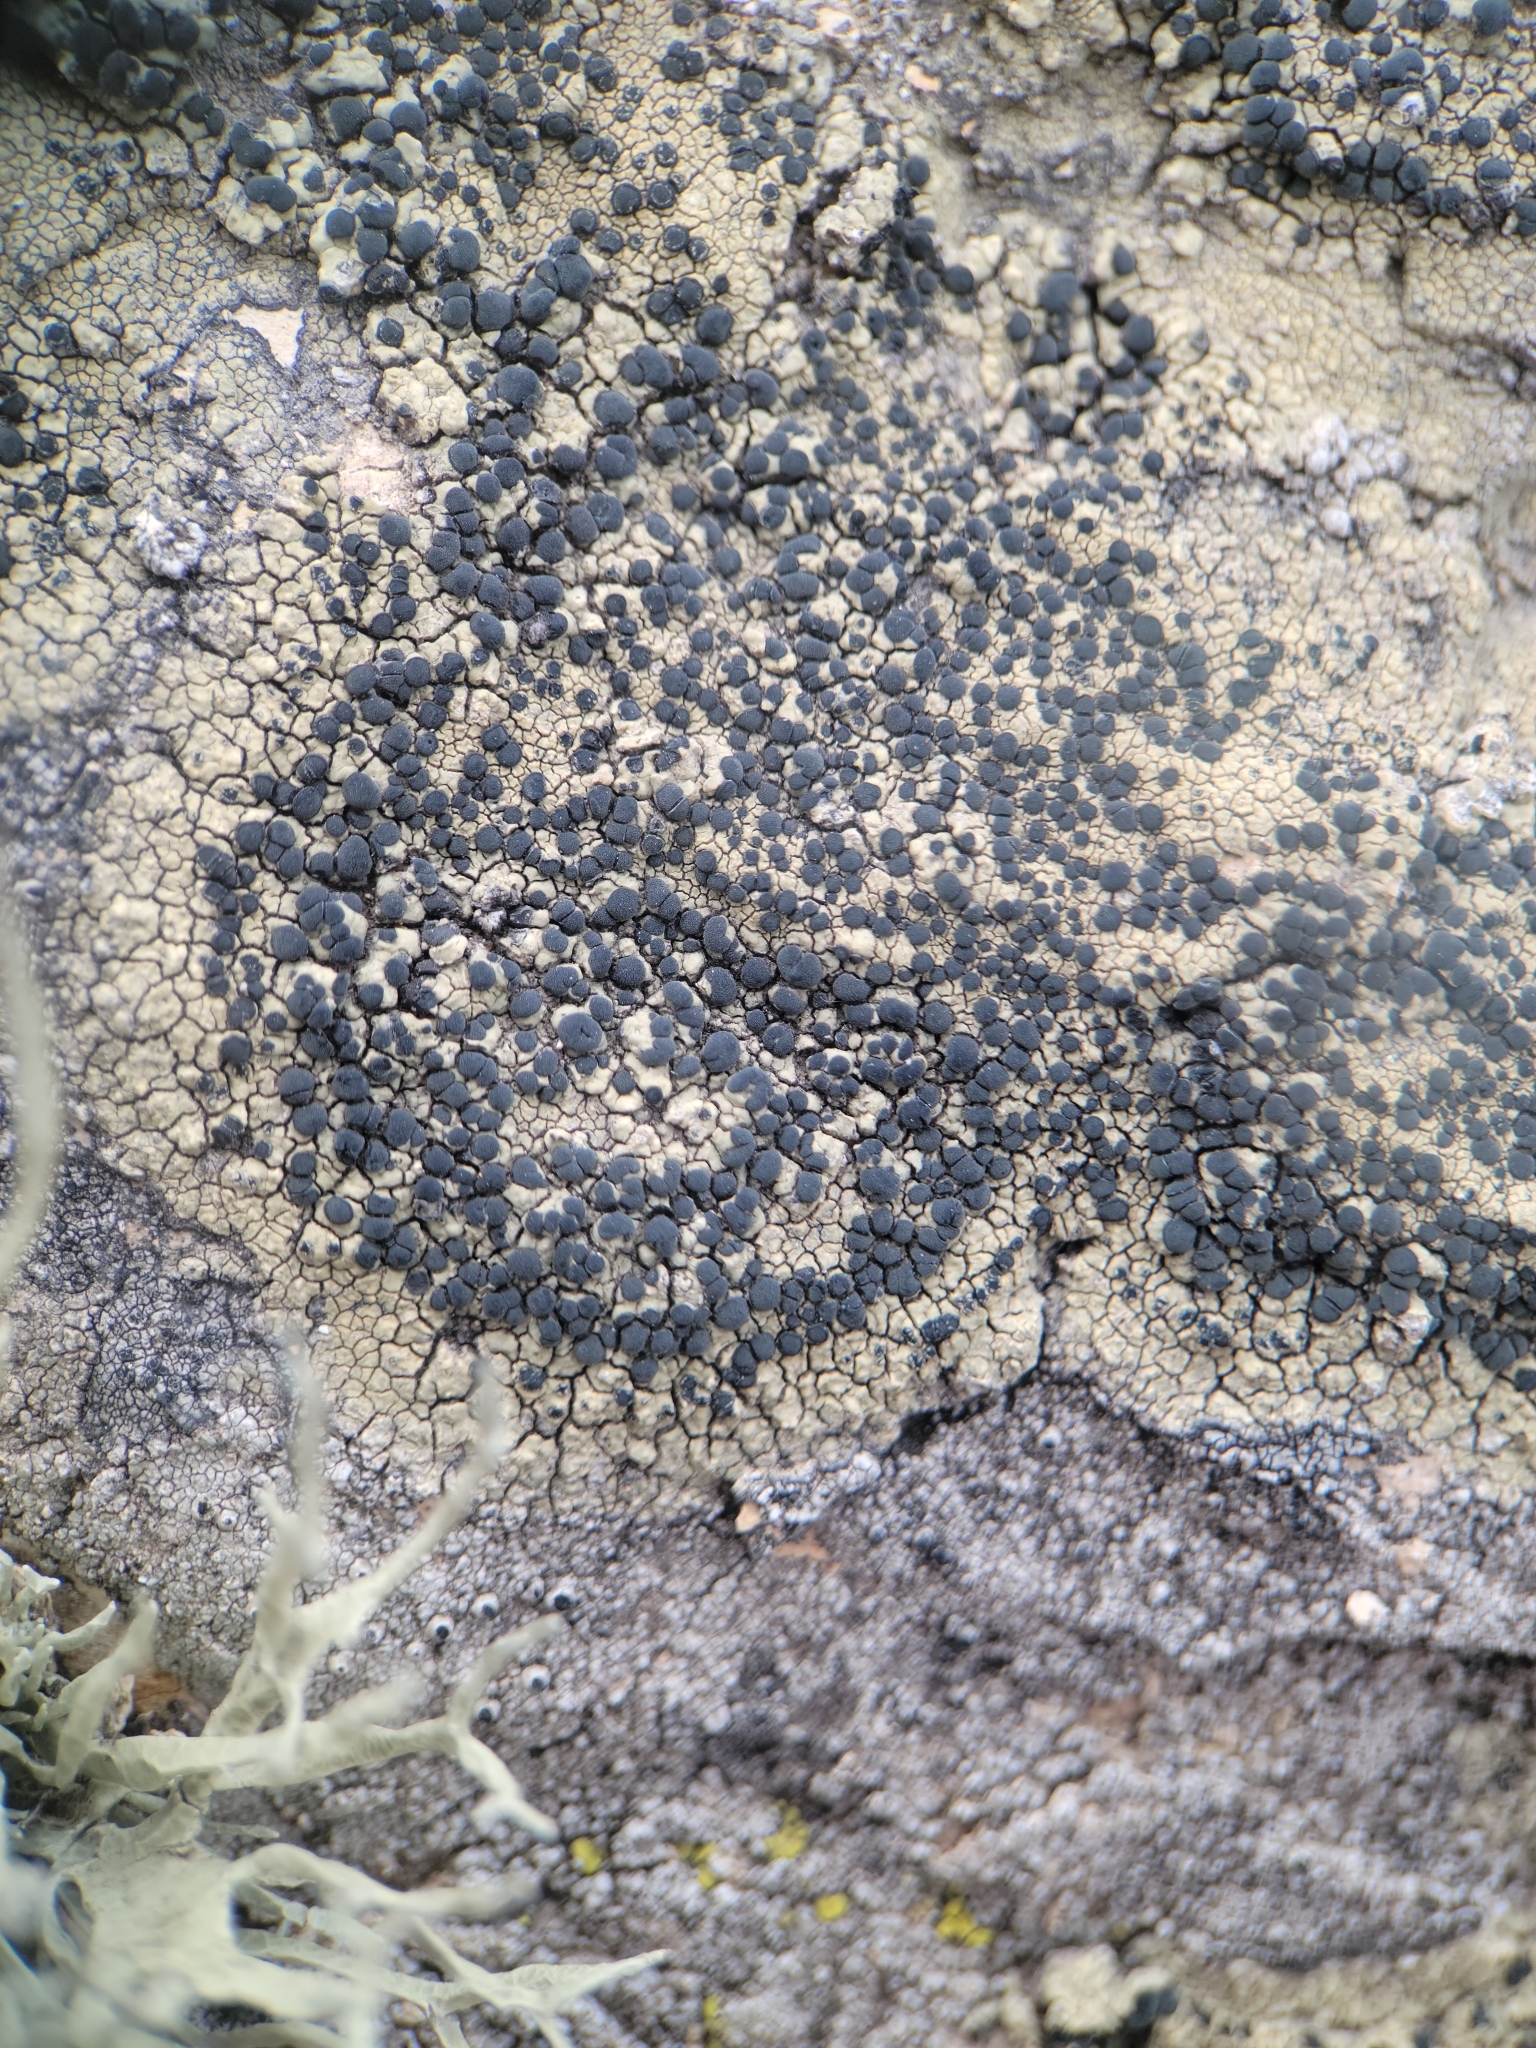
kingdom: Fungi
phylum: Ascomycota
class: Lecanoromycetes
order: Caliciales
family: Caliciaceae
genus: Buellia
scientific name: Buellia halonia
